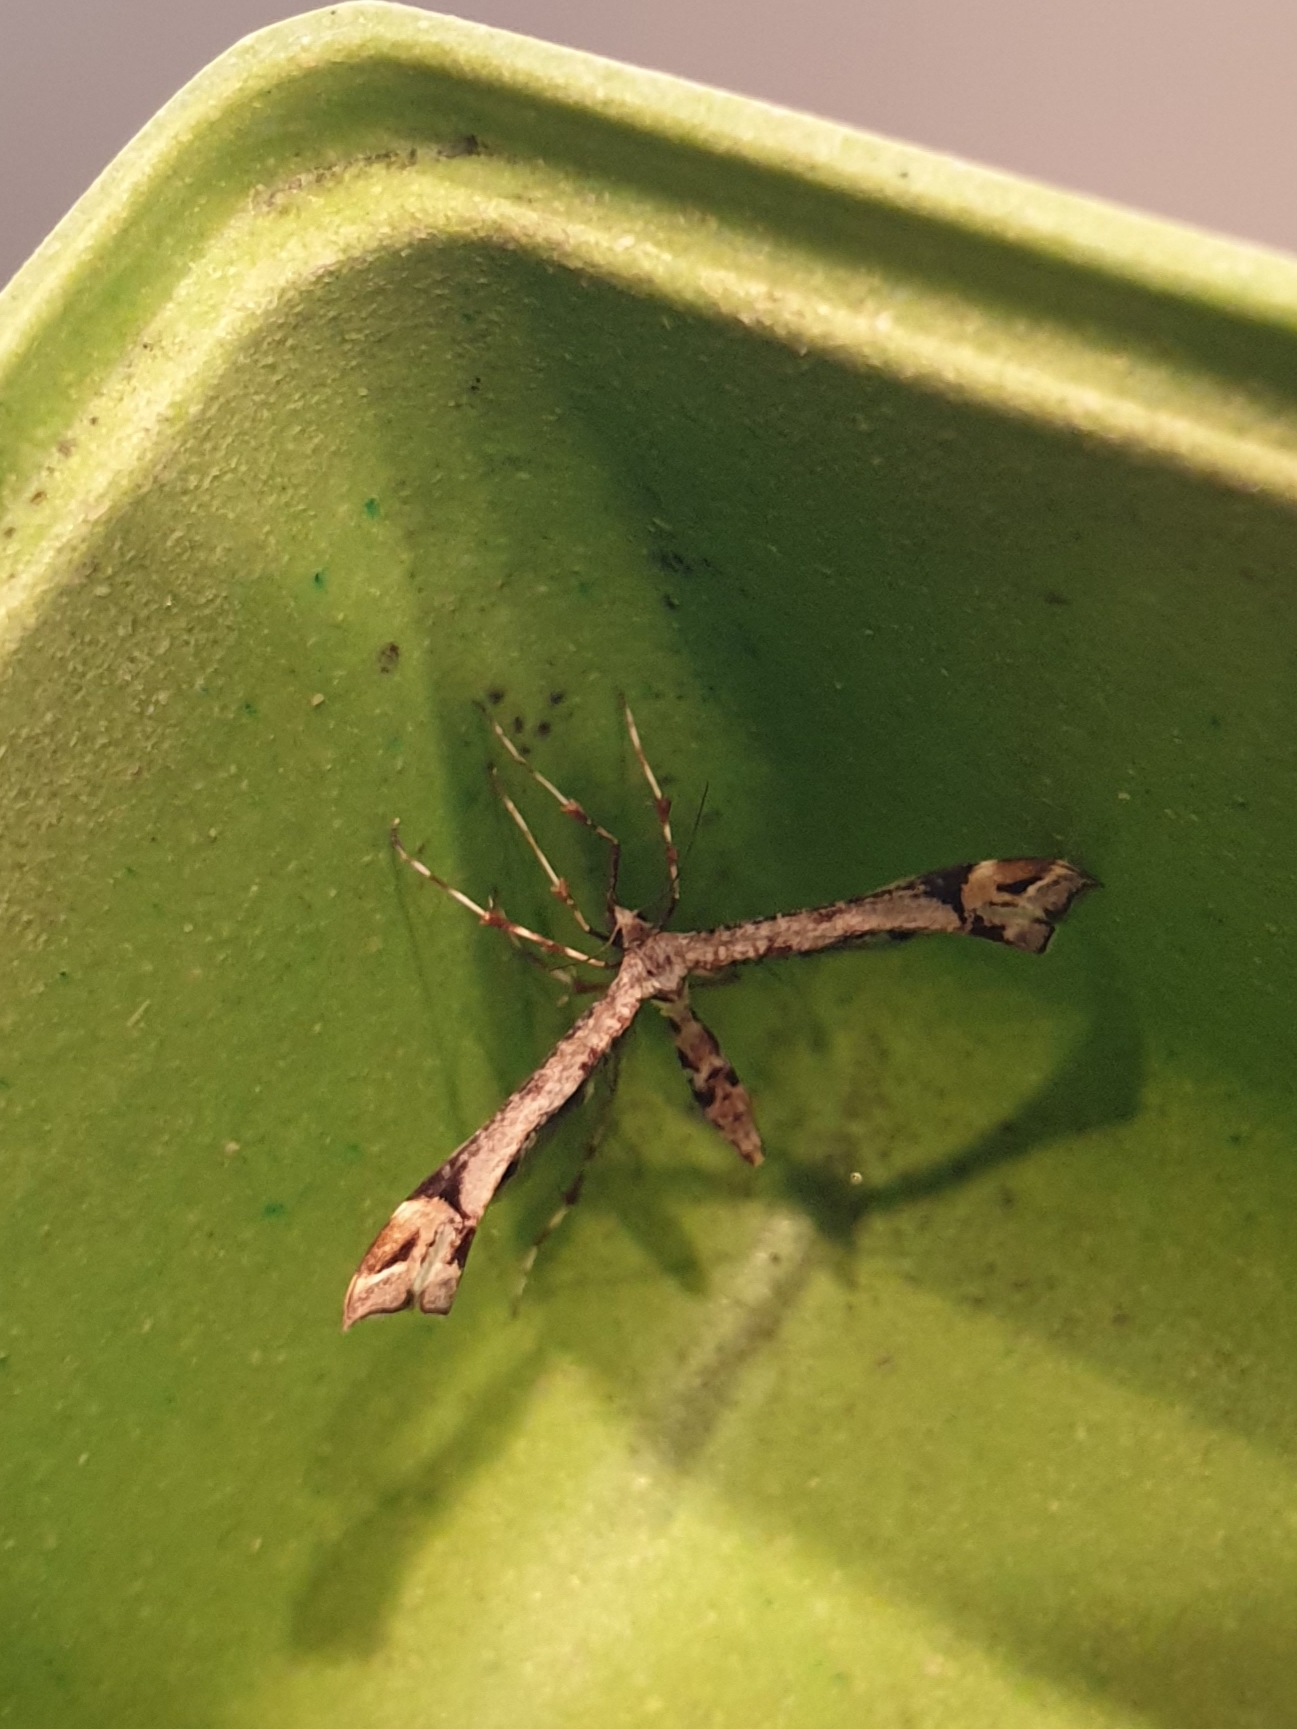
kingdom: Animalia
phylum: Arthropoda
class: Insecta
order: Lepidoptera
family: Pterophoridae
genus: Amblyptilia
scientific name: Amblyptilia falcatalis
